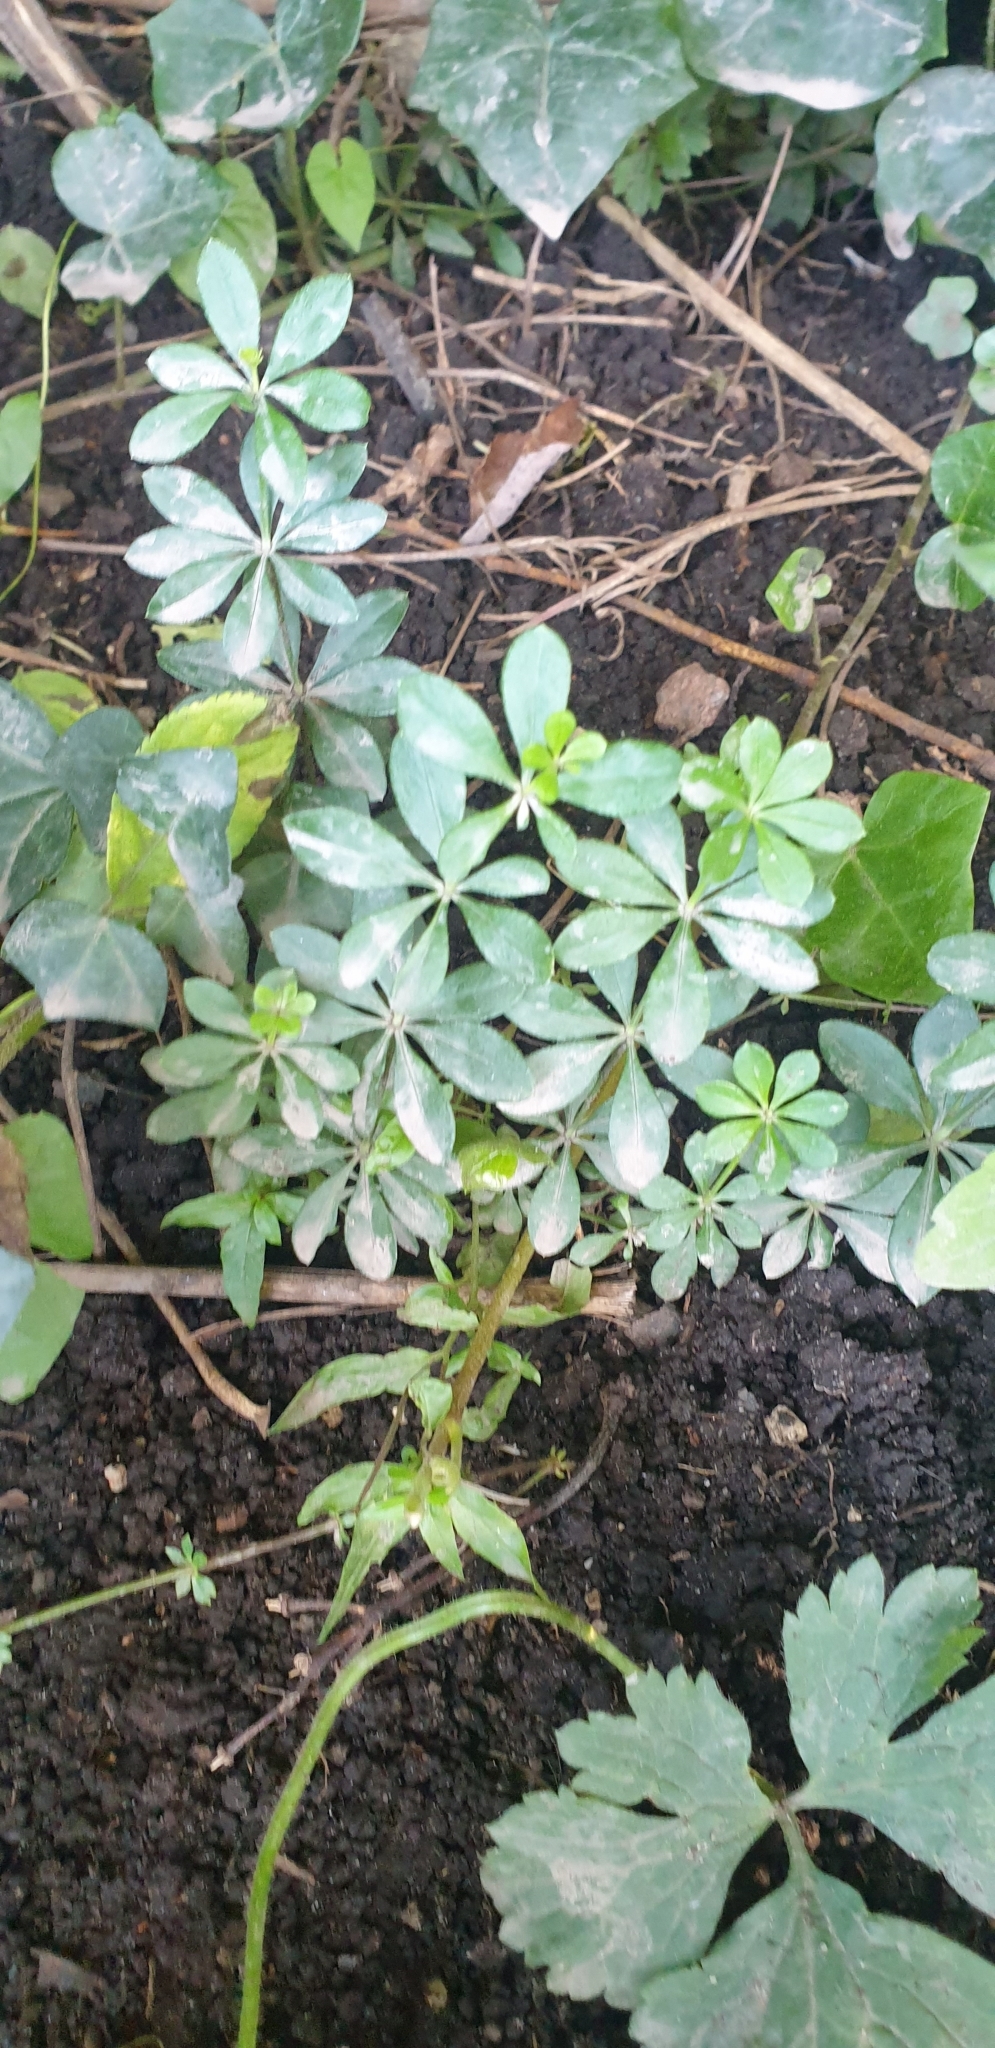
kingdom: Plantae
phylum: Tracheophyta
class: Magnoliopsida
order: Gentianales
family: Rubiaceae
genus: Galium
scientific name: Galium odoratum
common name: Sweet woodruff
